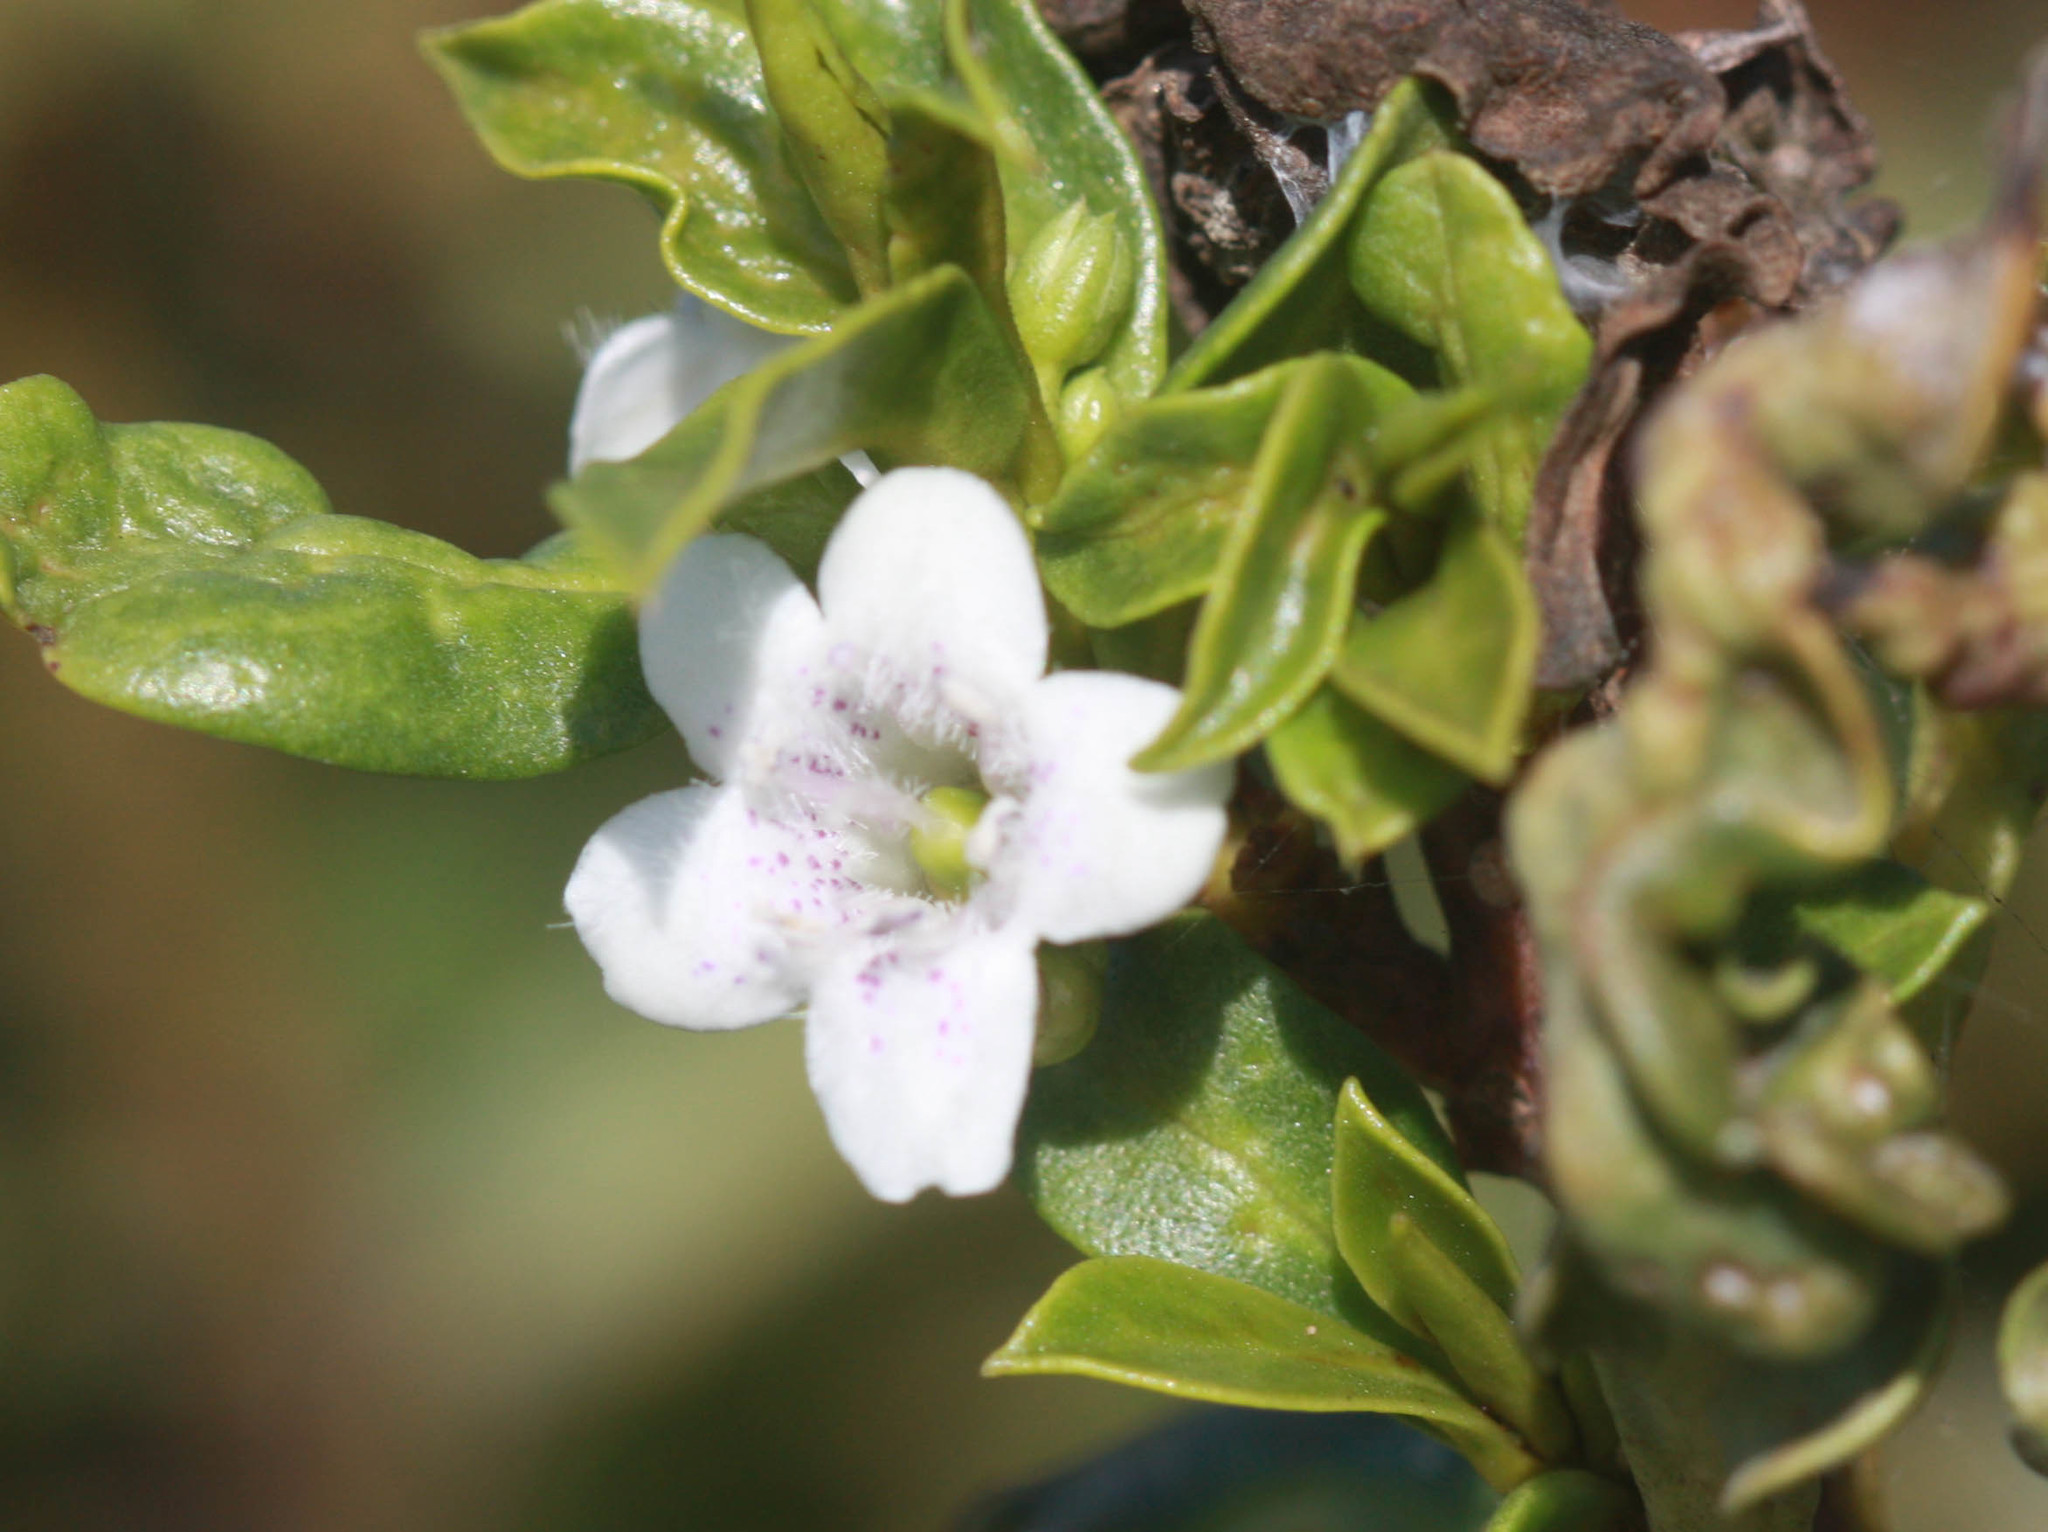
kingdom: Plantae
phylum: Tracheophyta
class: Magnoliopsida
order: Lamiales
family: Scrophulariaceae
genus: Myoporum
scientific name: Myoporum laetum
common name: Ngaio tree
